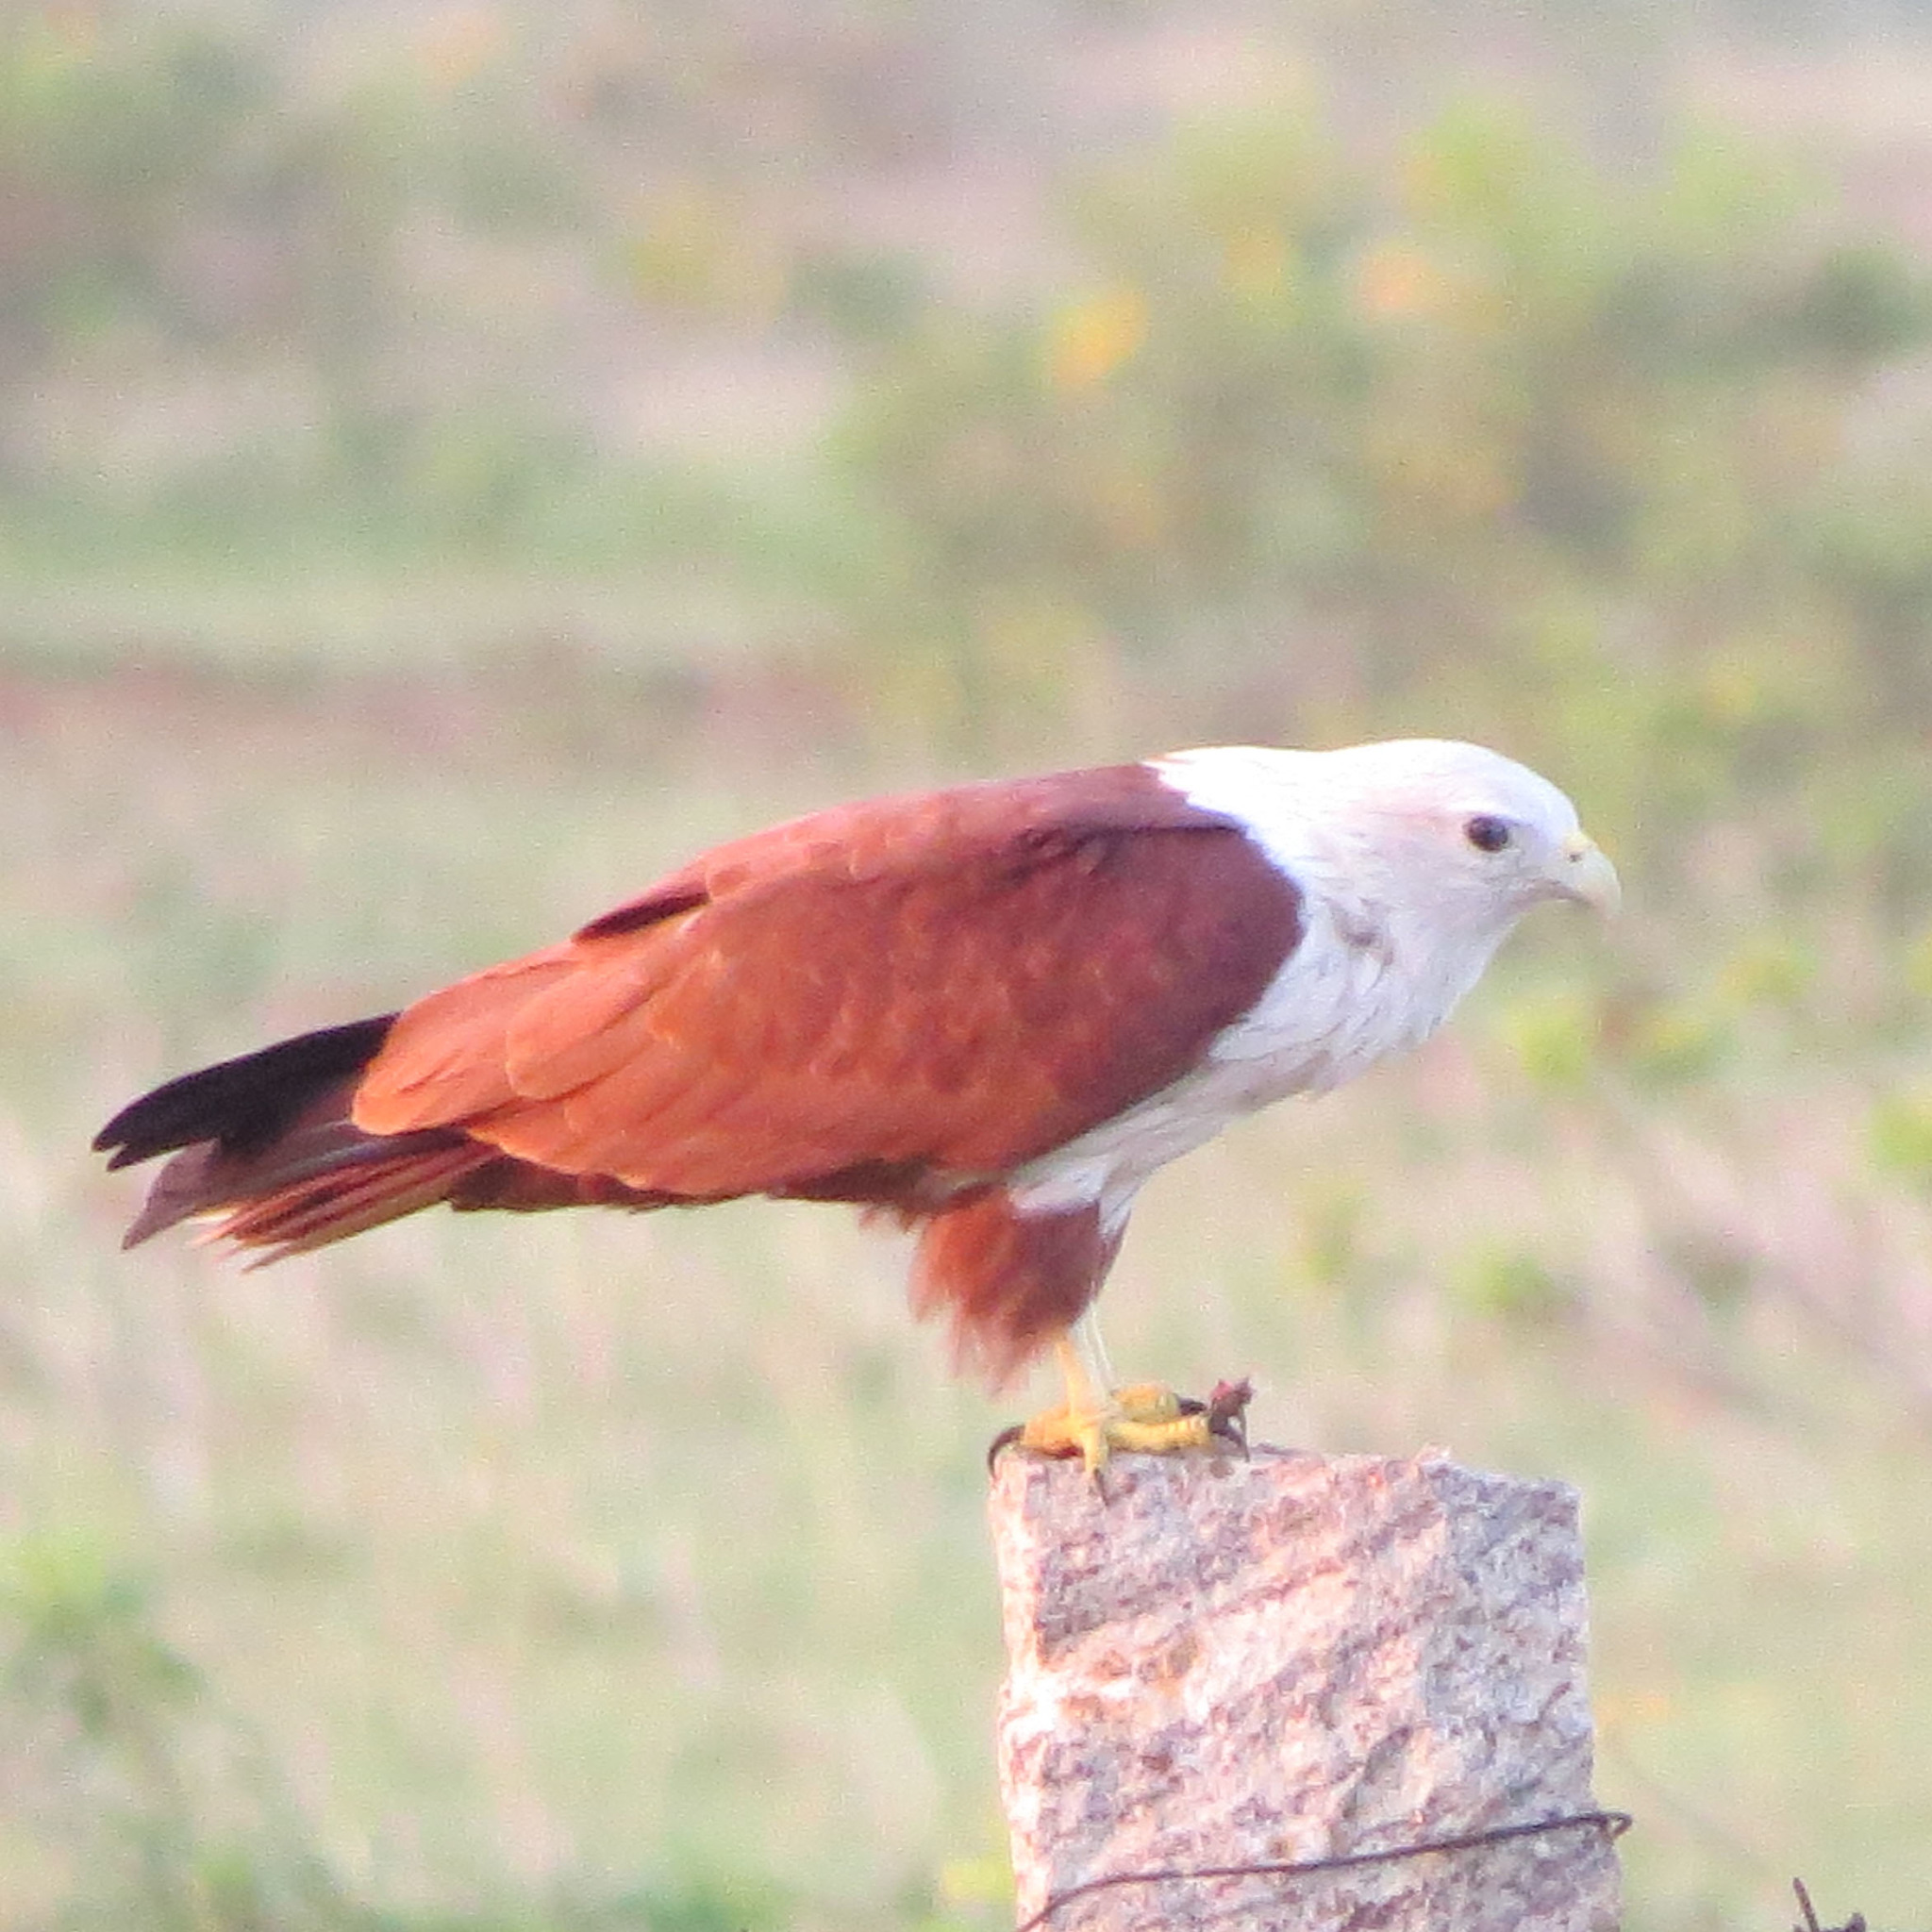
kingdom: Animalia
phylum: Chordata
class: Aves
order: Accipitriformes
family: Accipitridae
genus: Haliastur
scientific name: Haliastur indus
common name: Brahminy kite
